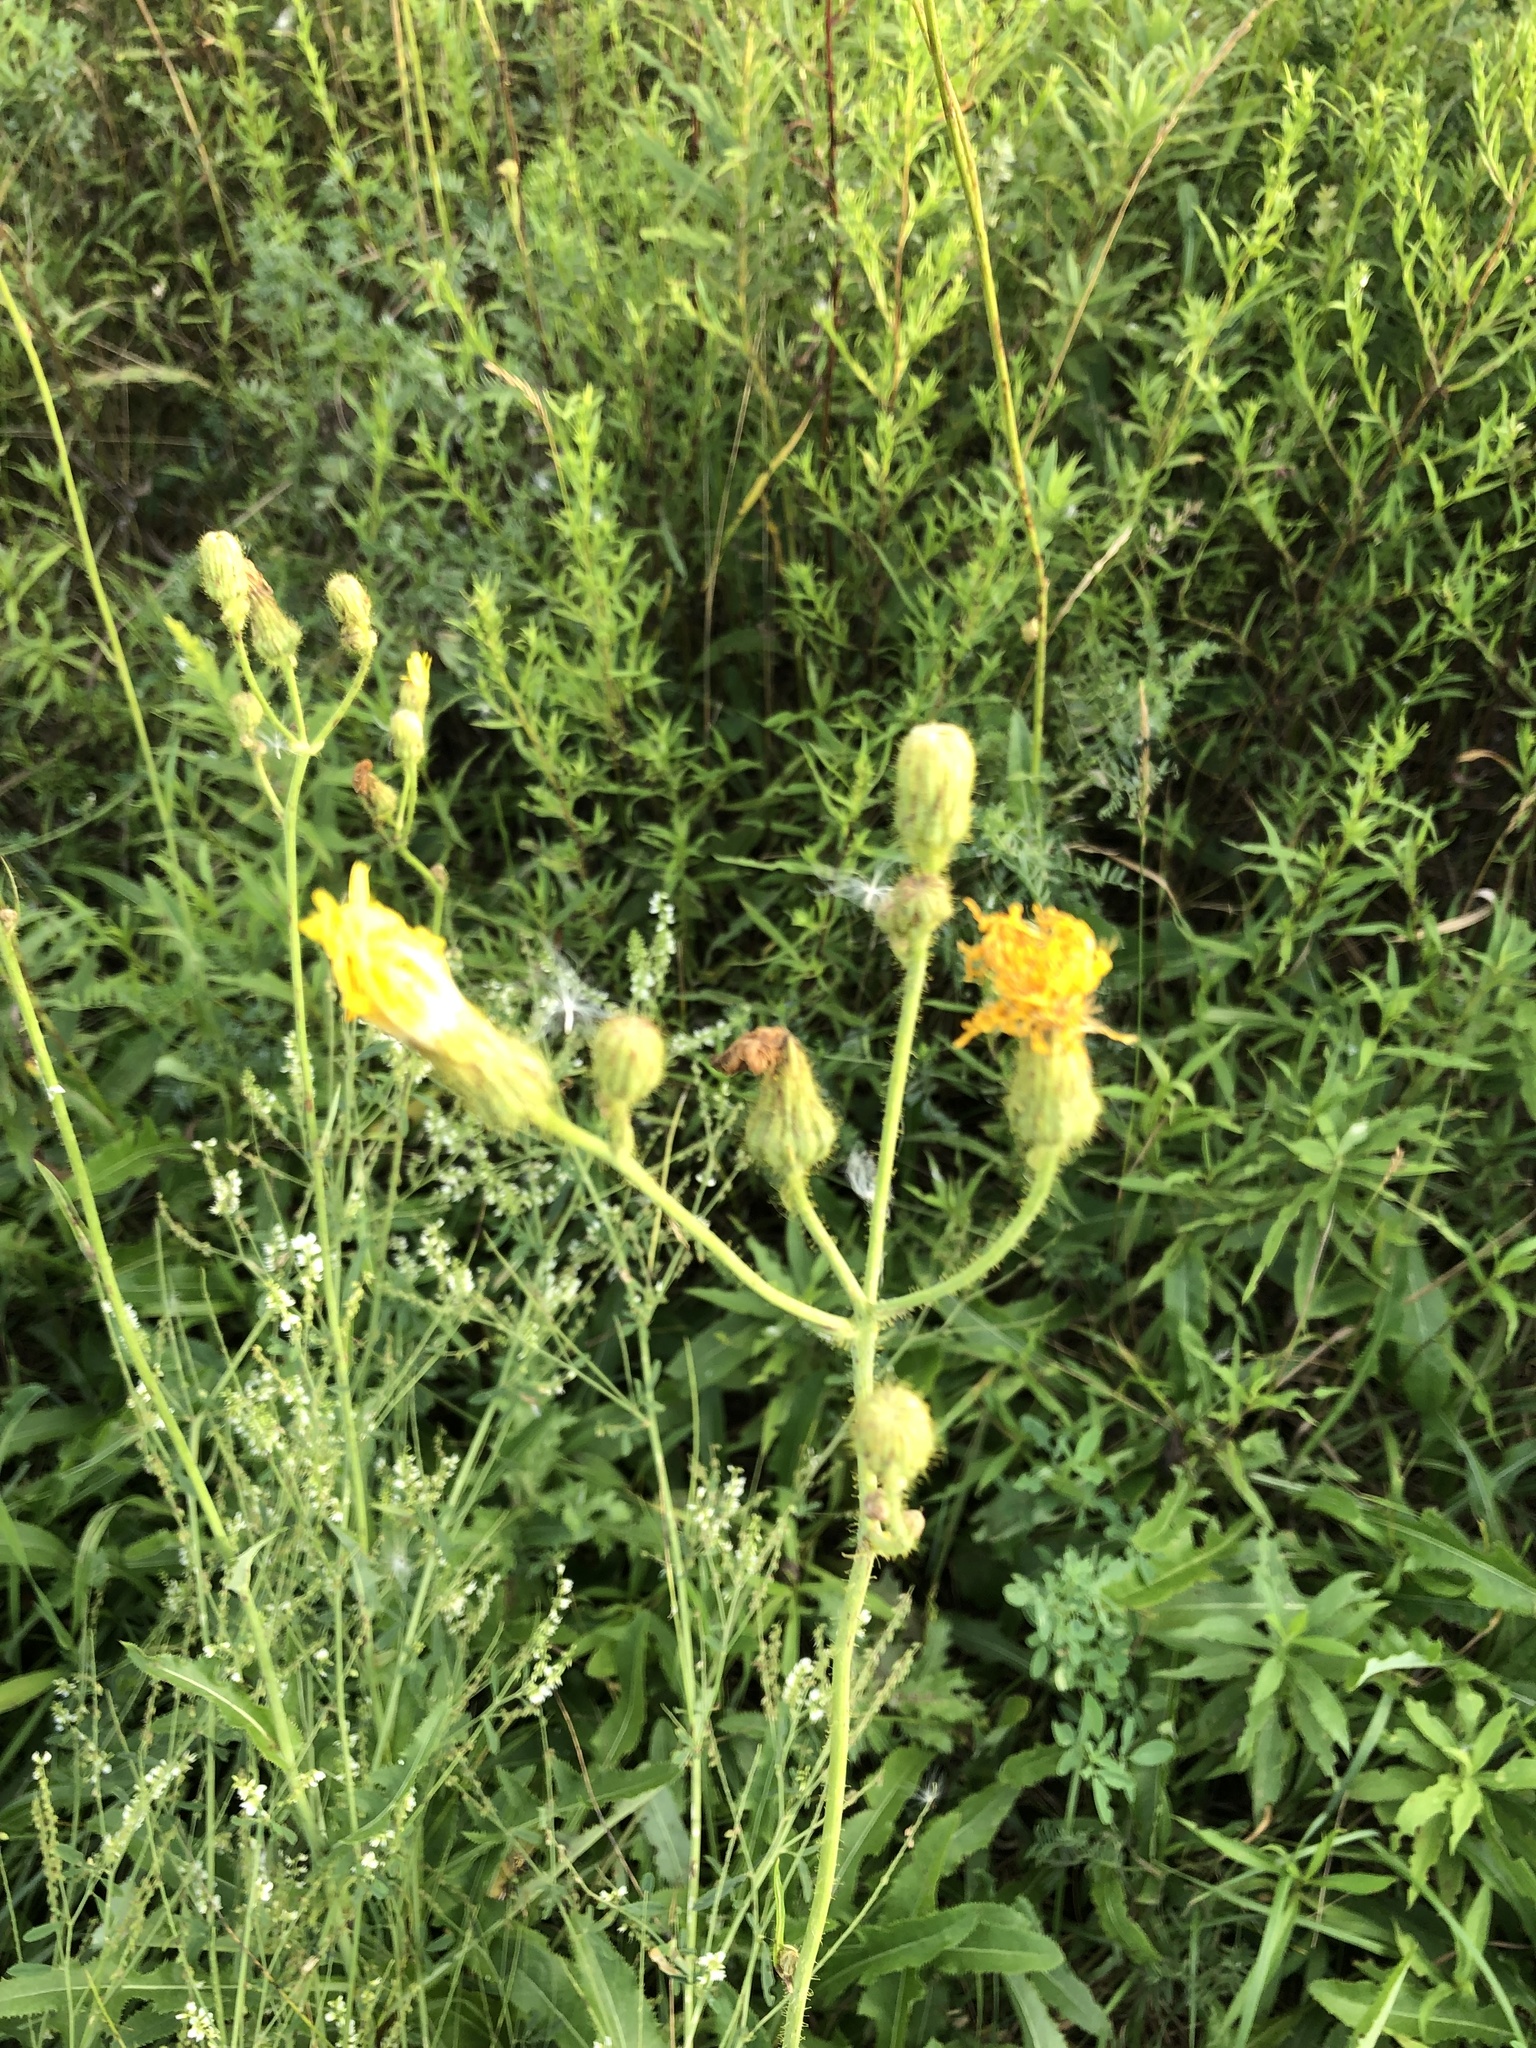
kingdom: Plantae
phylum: Tracheophyta
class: Magnoliopsida
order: Asterales
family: Asteraceae
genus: Sonchus
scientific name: Sonchus arvensis
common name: Perennial sow-thistle
